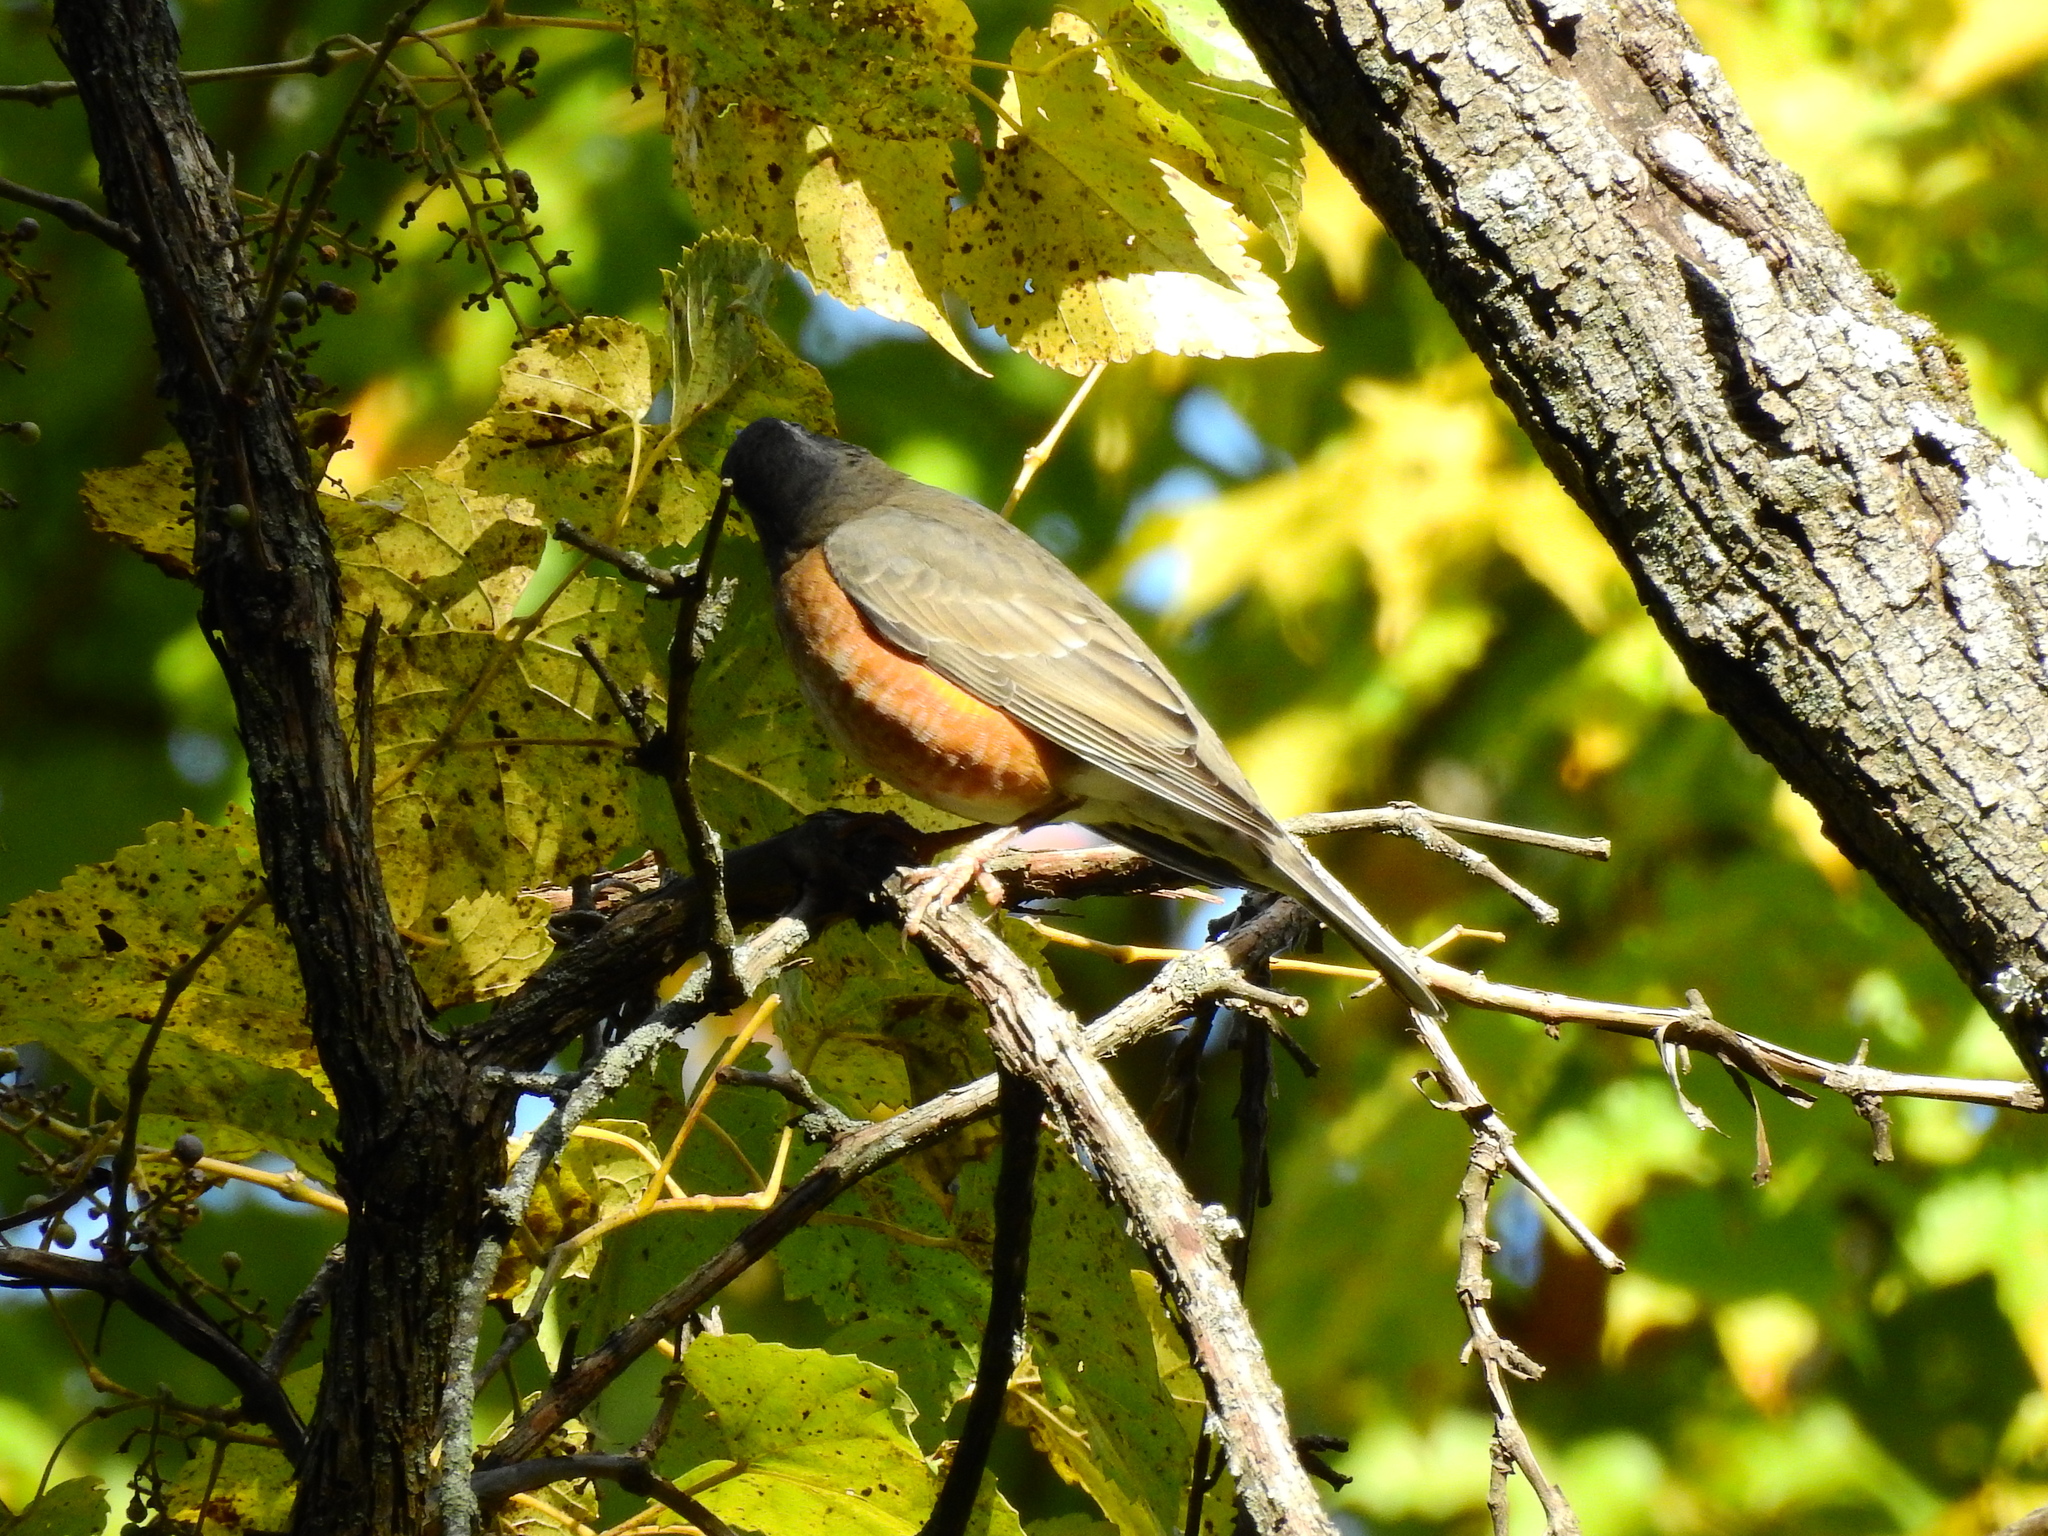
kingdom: Animalia
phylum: Chordata
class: Aves
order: Passeriformes
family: Turdidae
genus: Turdus
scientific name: Turdus migratorius
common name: American robin
